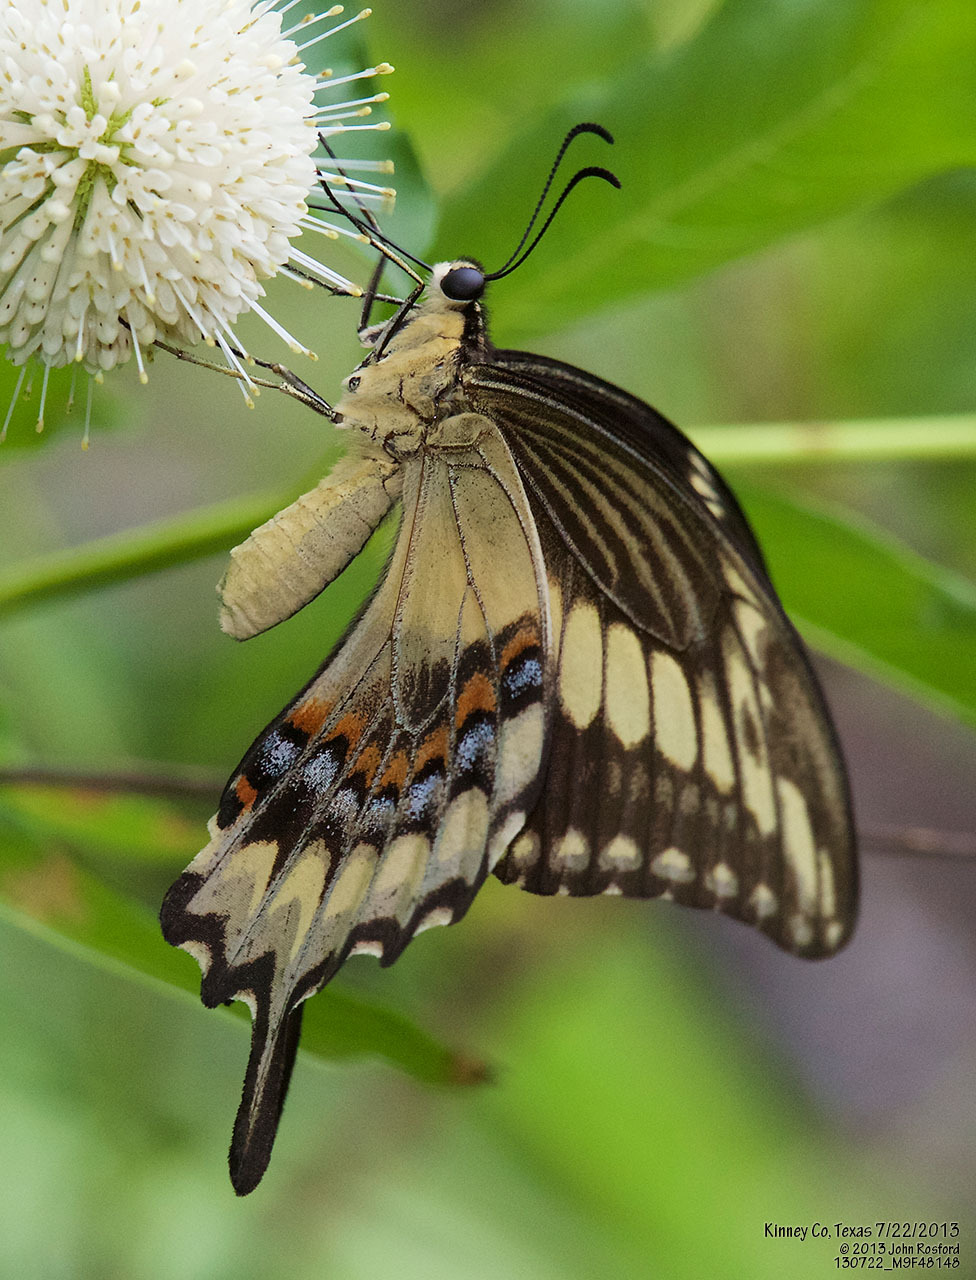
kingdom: Animalia
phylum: Arthropoda
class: Insecta
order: Lepidoptera
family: Papilionidae
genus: Papilio
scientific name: Papilio ornythion
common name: Ornythion swallowtail
